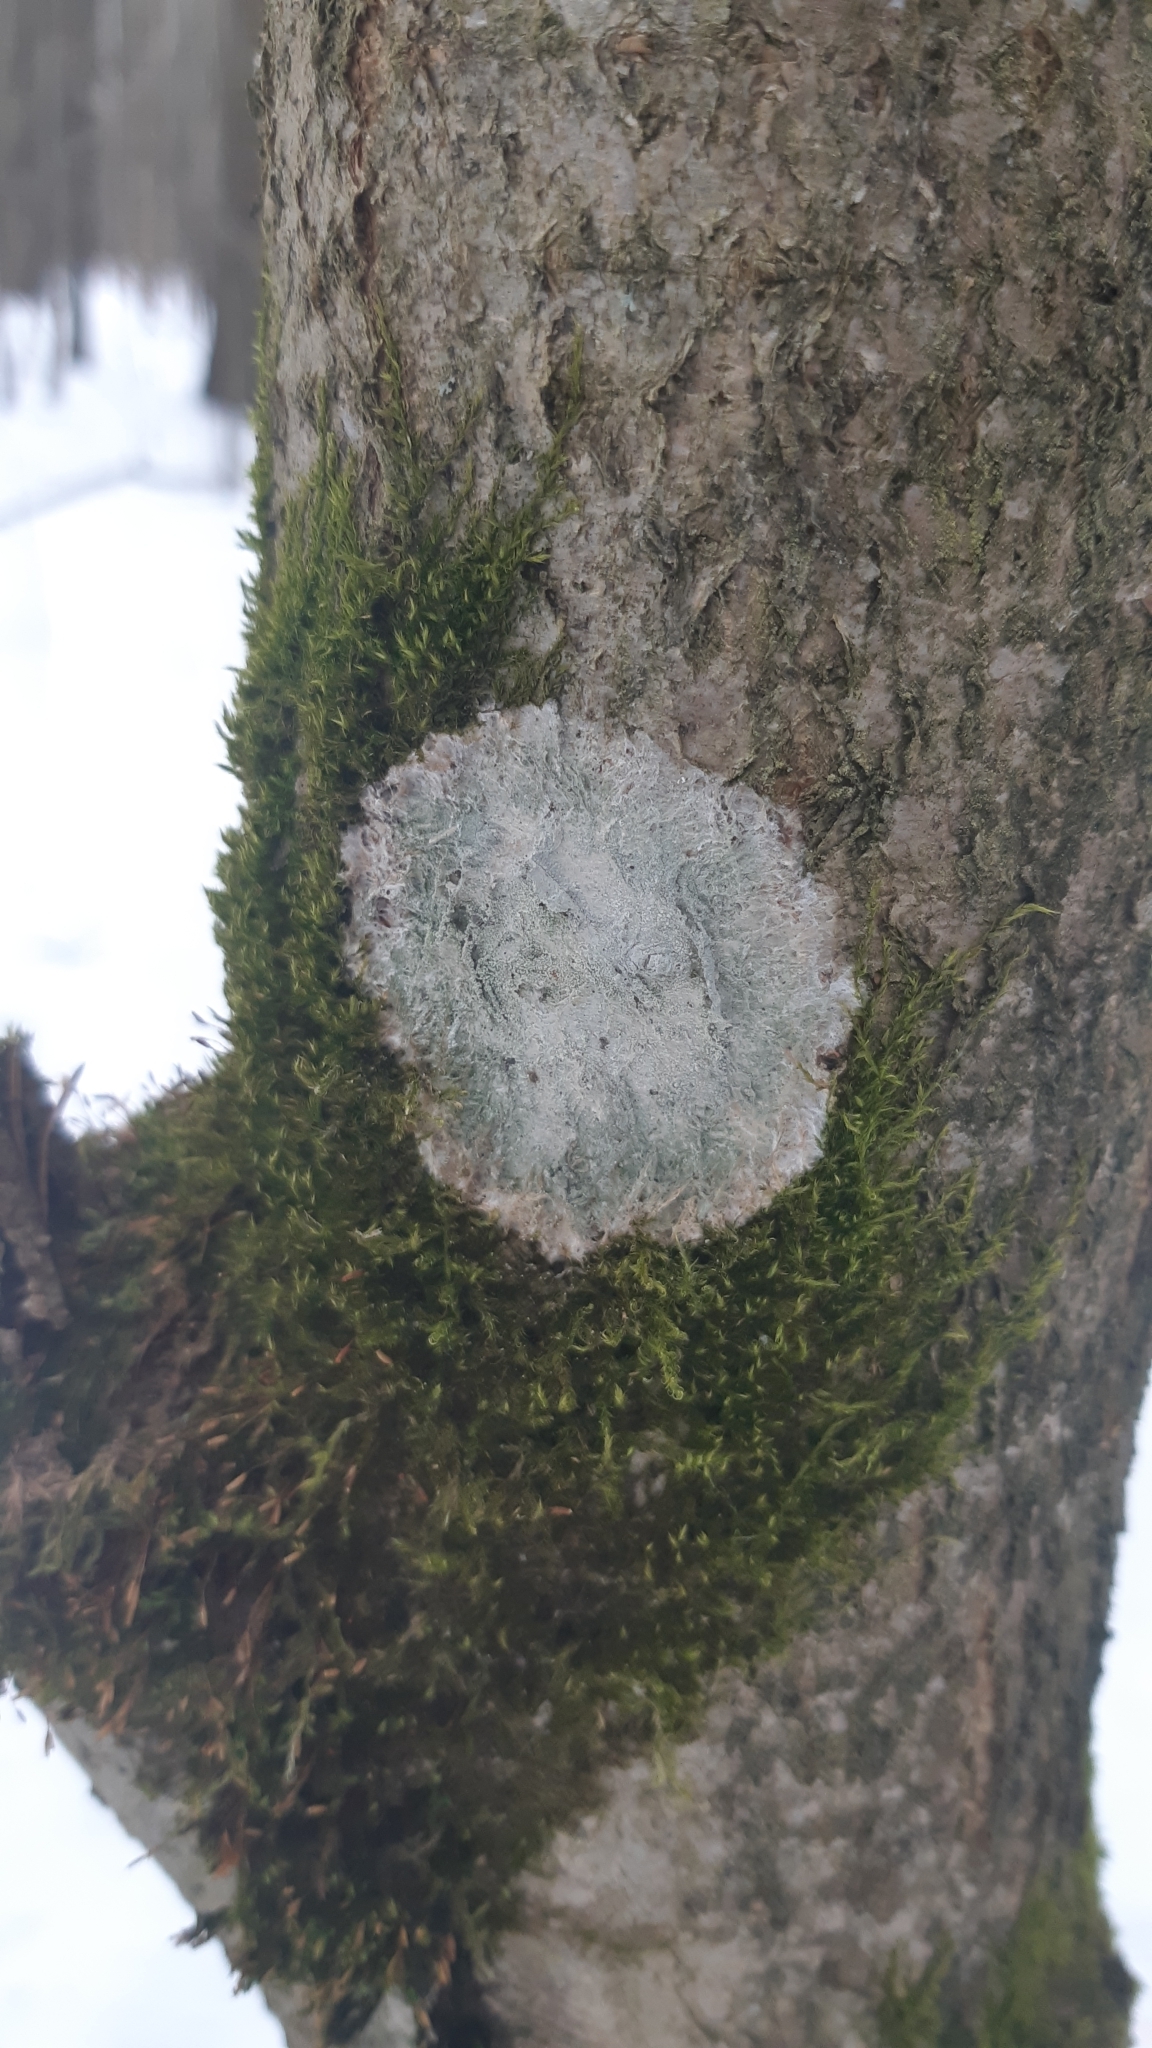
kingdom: Fungi
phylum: Ascomycota
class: Lecanoromycetes
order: Ostropales
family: Phlyctidaceae
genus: Phlyctis
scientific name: Phlyctis argena
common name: Whitewash lichen
